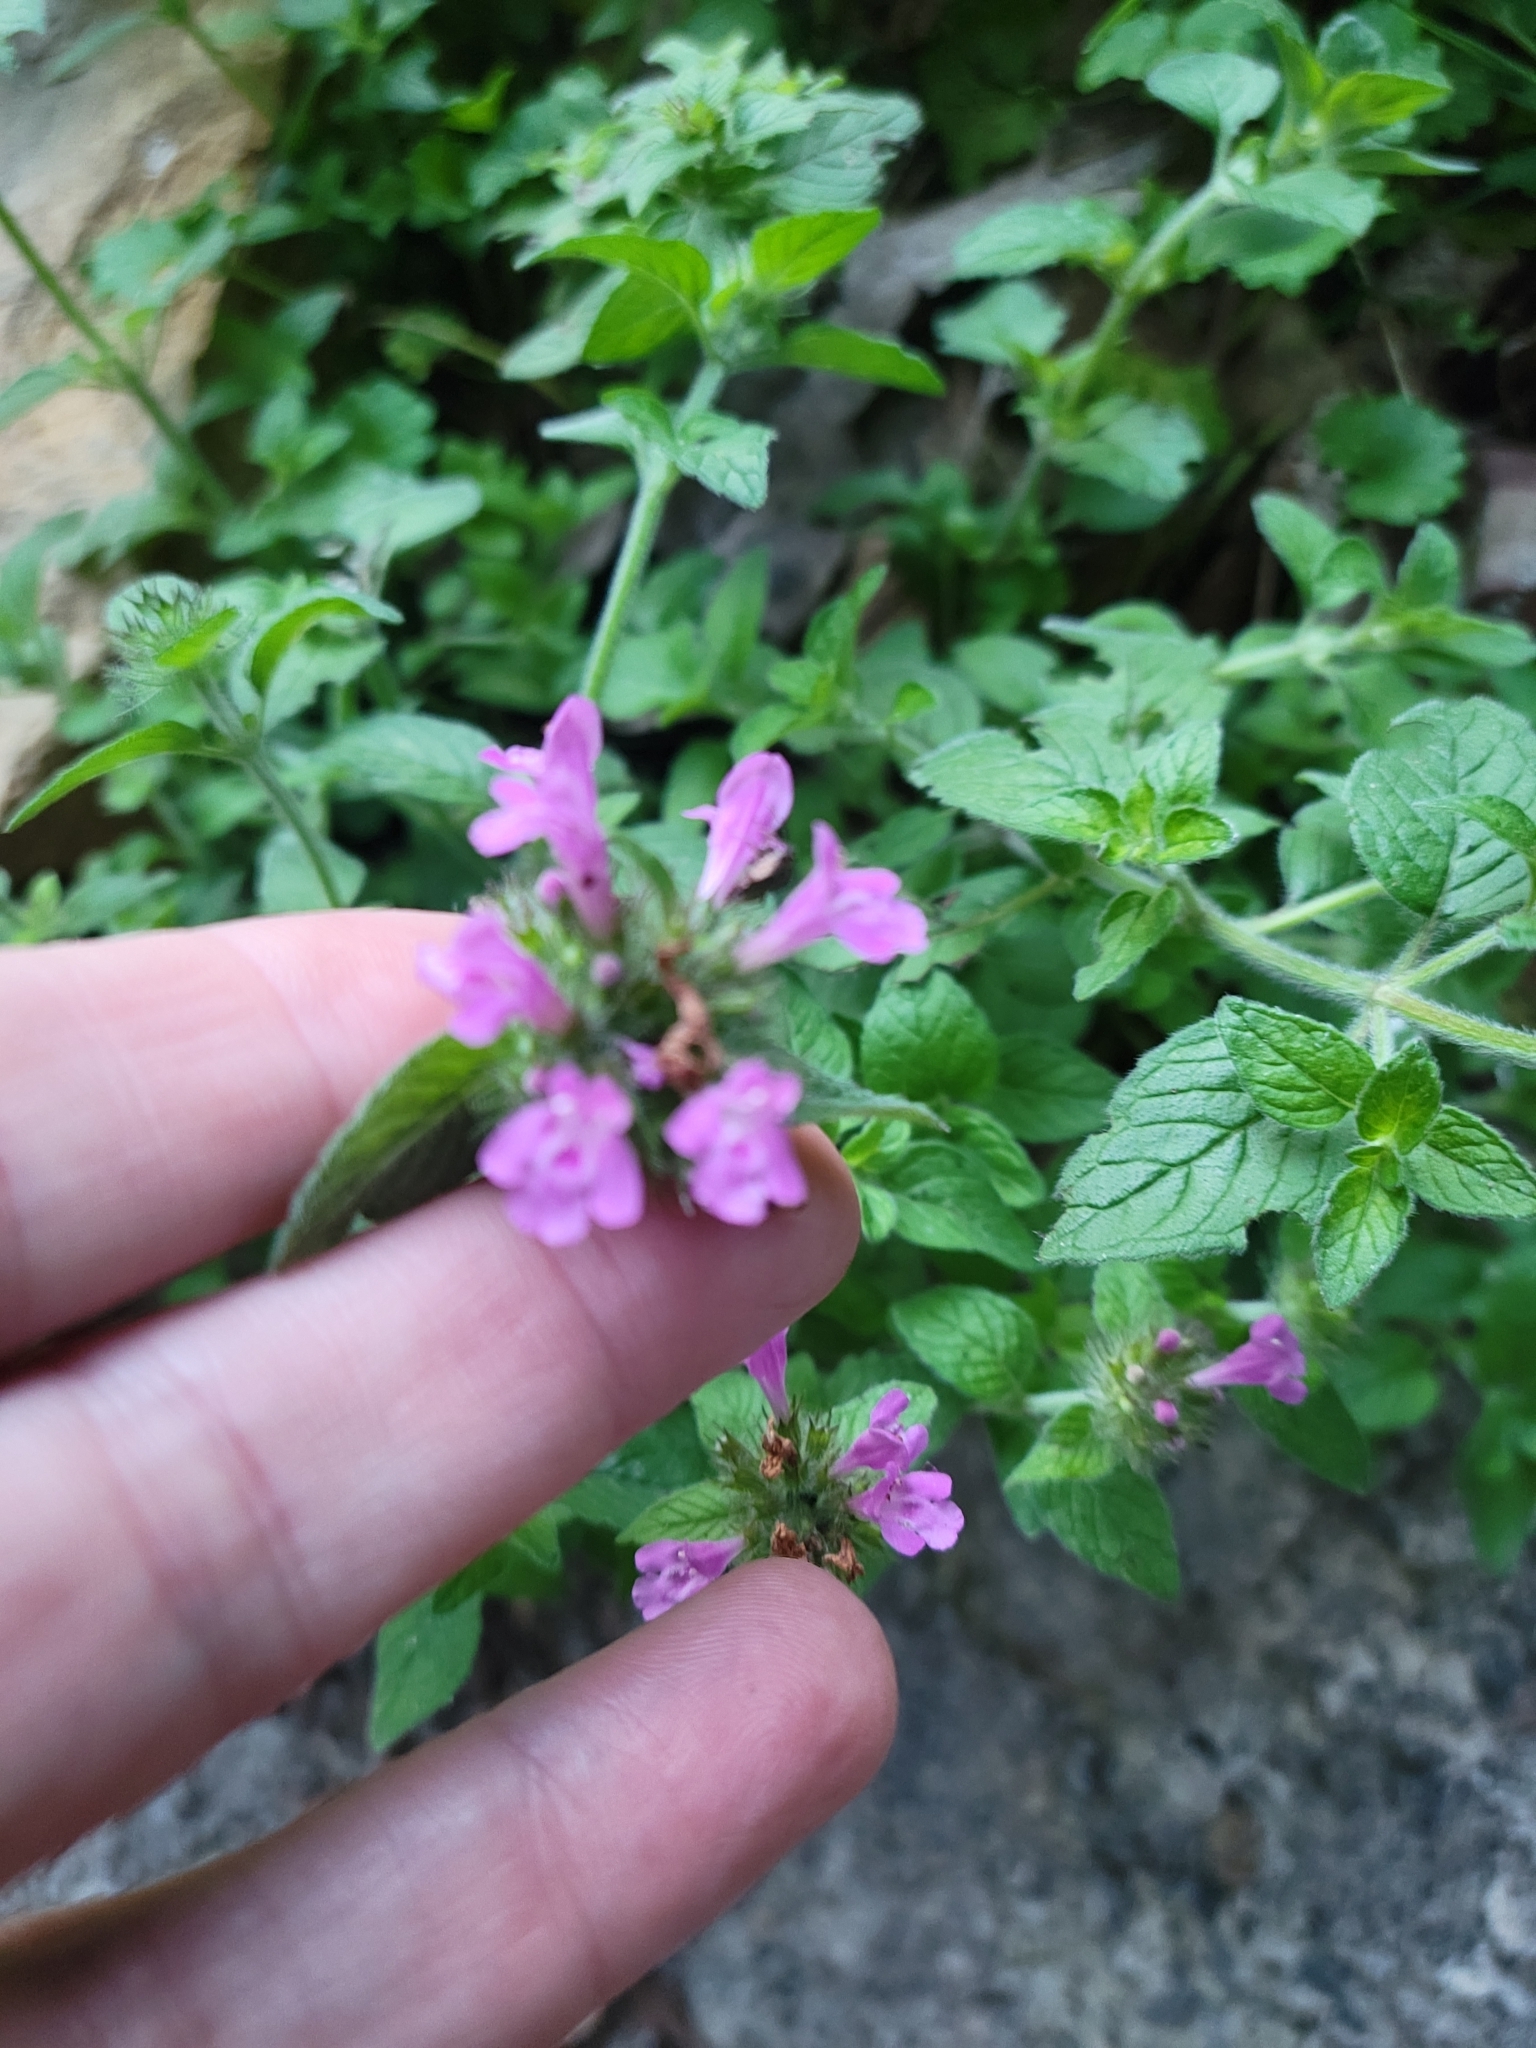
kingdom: Plantae
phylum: Tracheophyta
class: Magnoliopsida
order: Lamiales
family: Lamiaceae
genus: Clinopodium
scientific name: Clinopodium vulgare
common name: Wild basil
